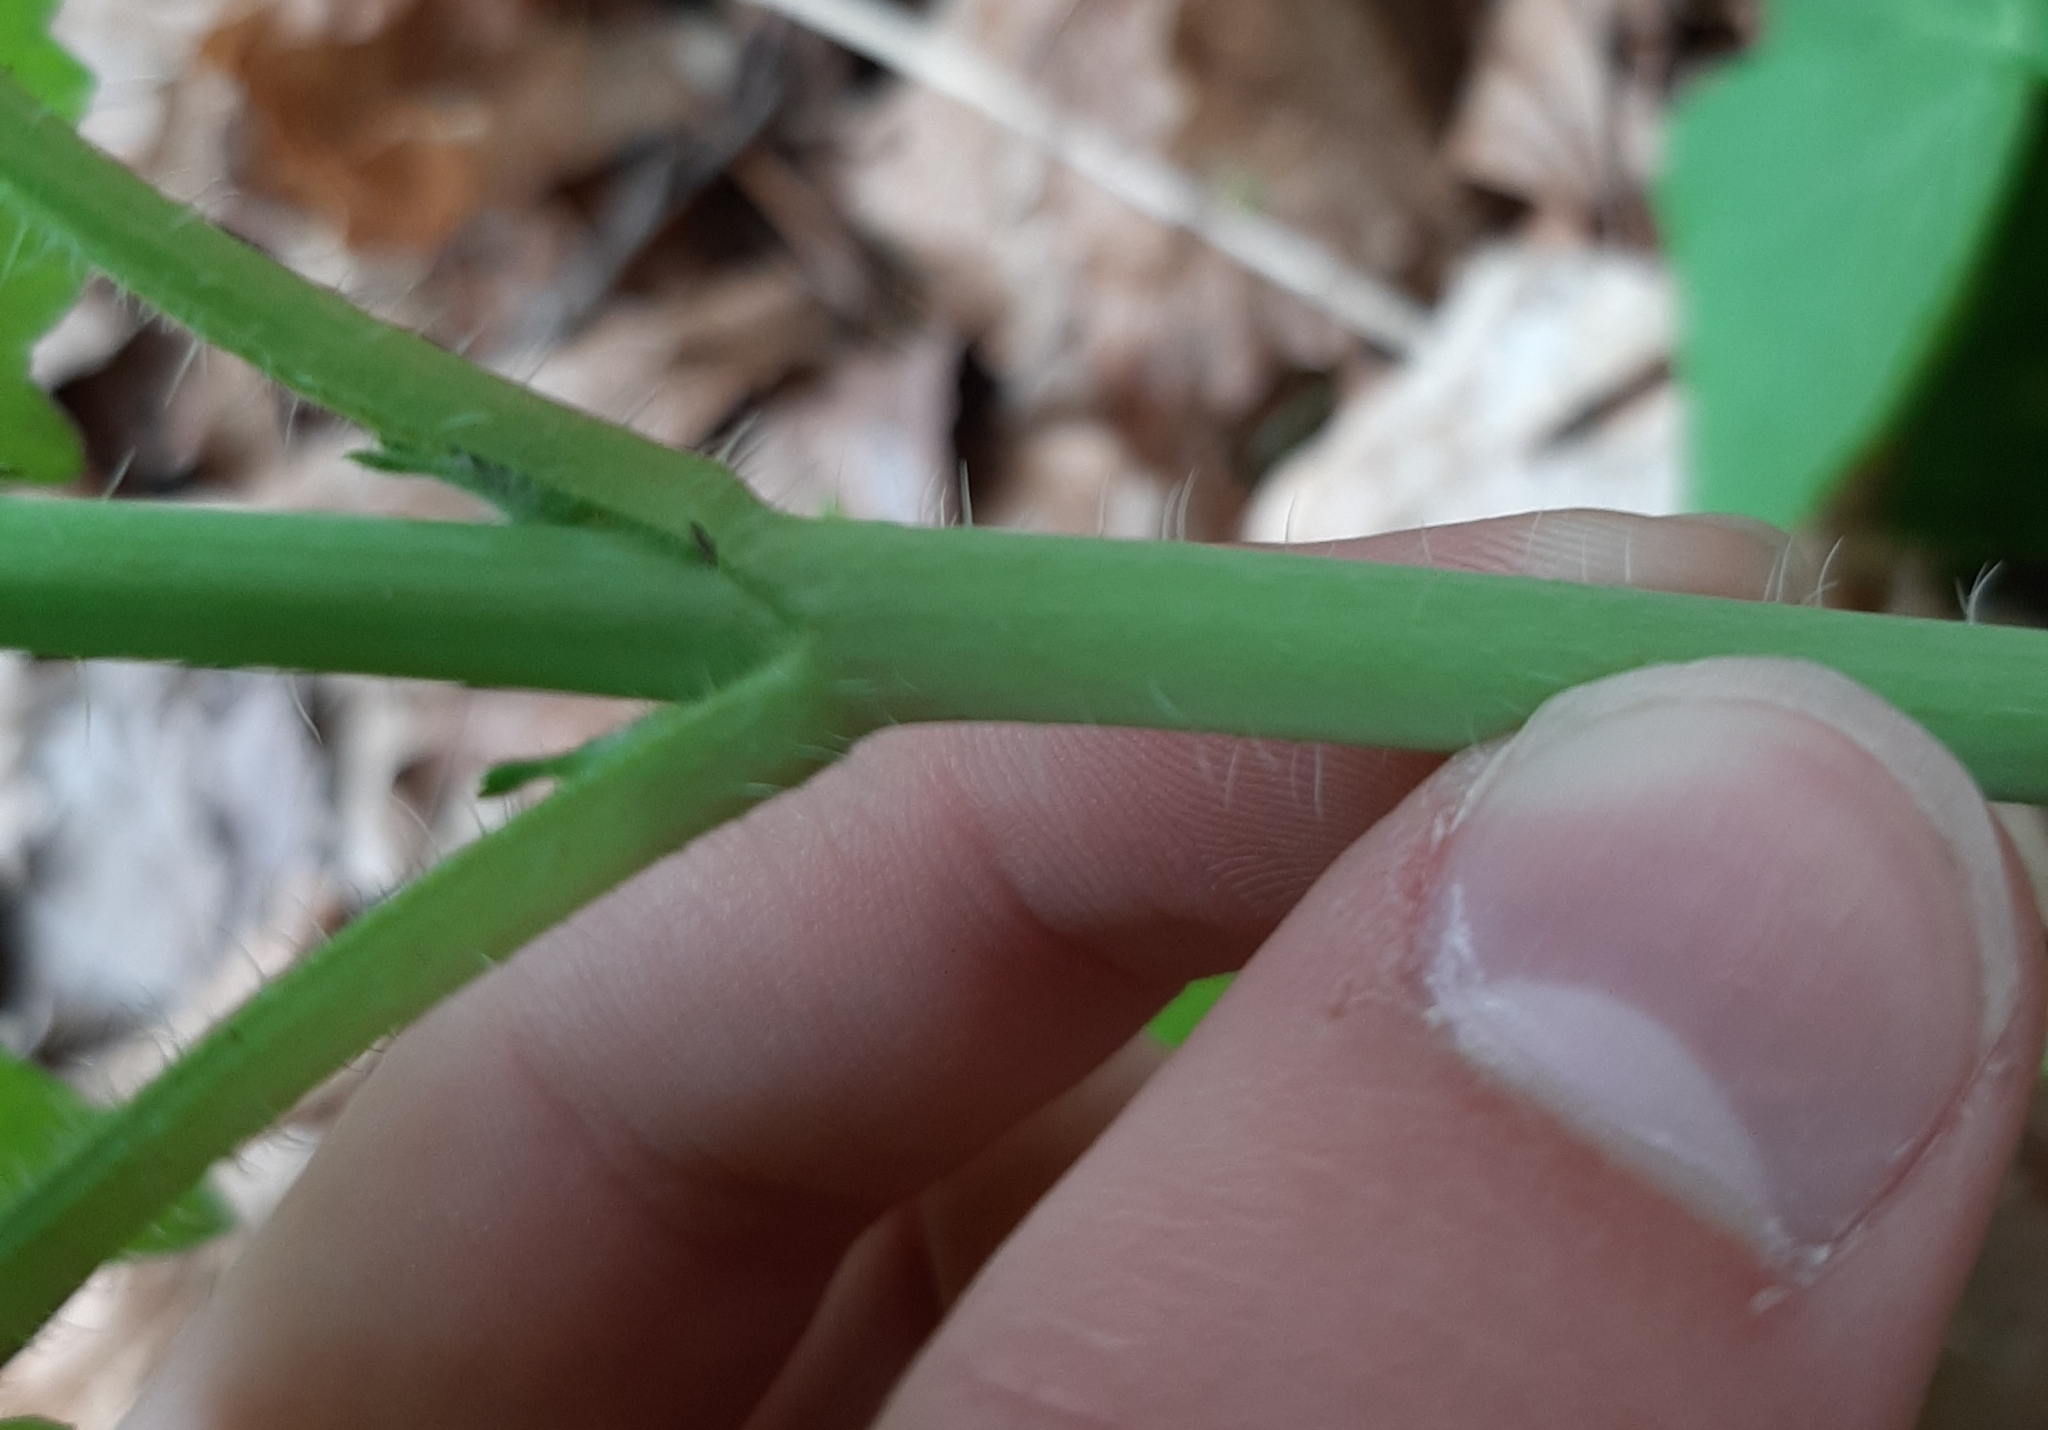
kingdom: Plantae
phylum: Tracheophyta
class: Magnoliopsida
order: Brassicales
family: Brassicaceae
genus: Lunaria
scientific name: Lunaria annua
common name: Honesty
